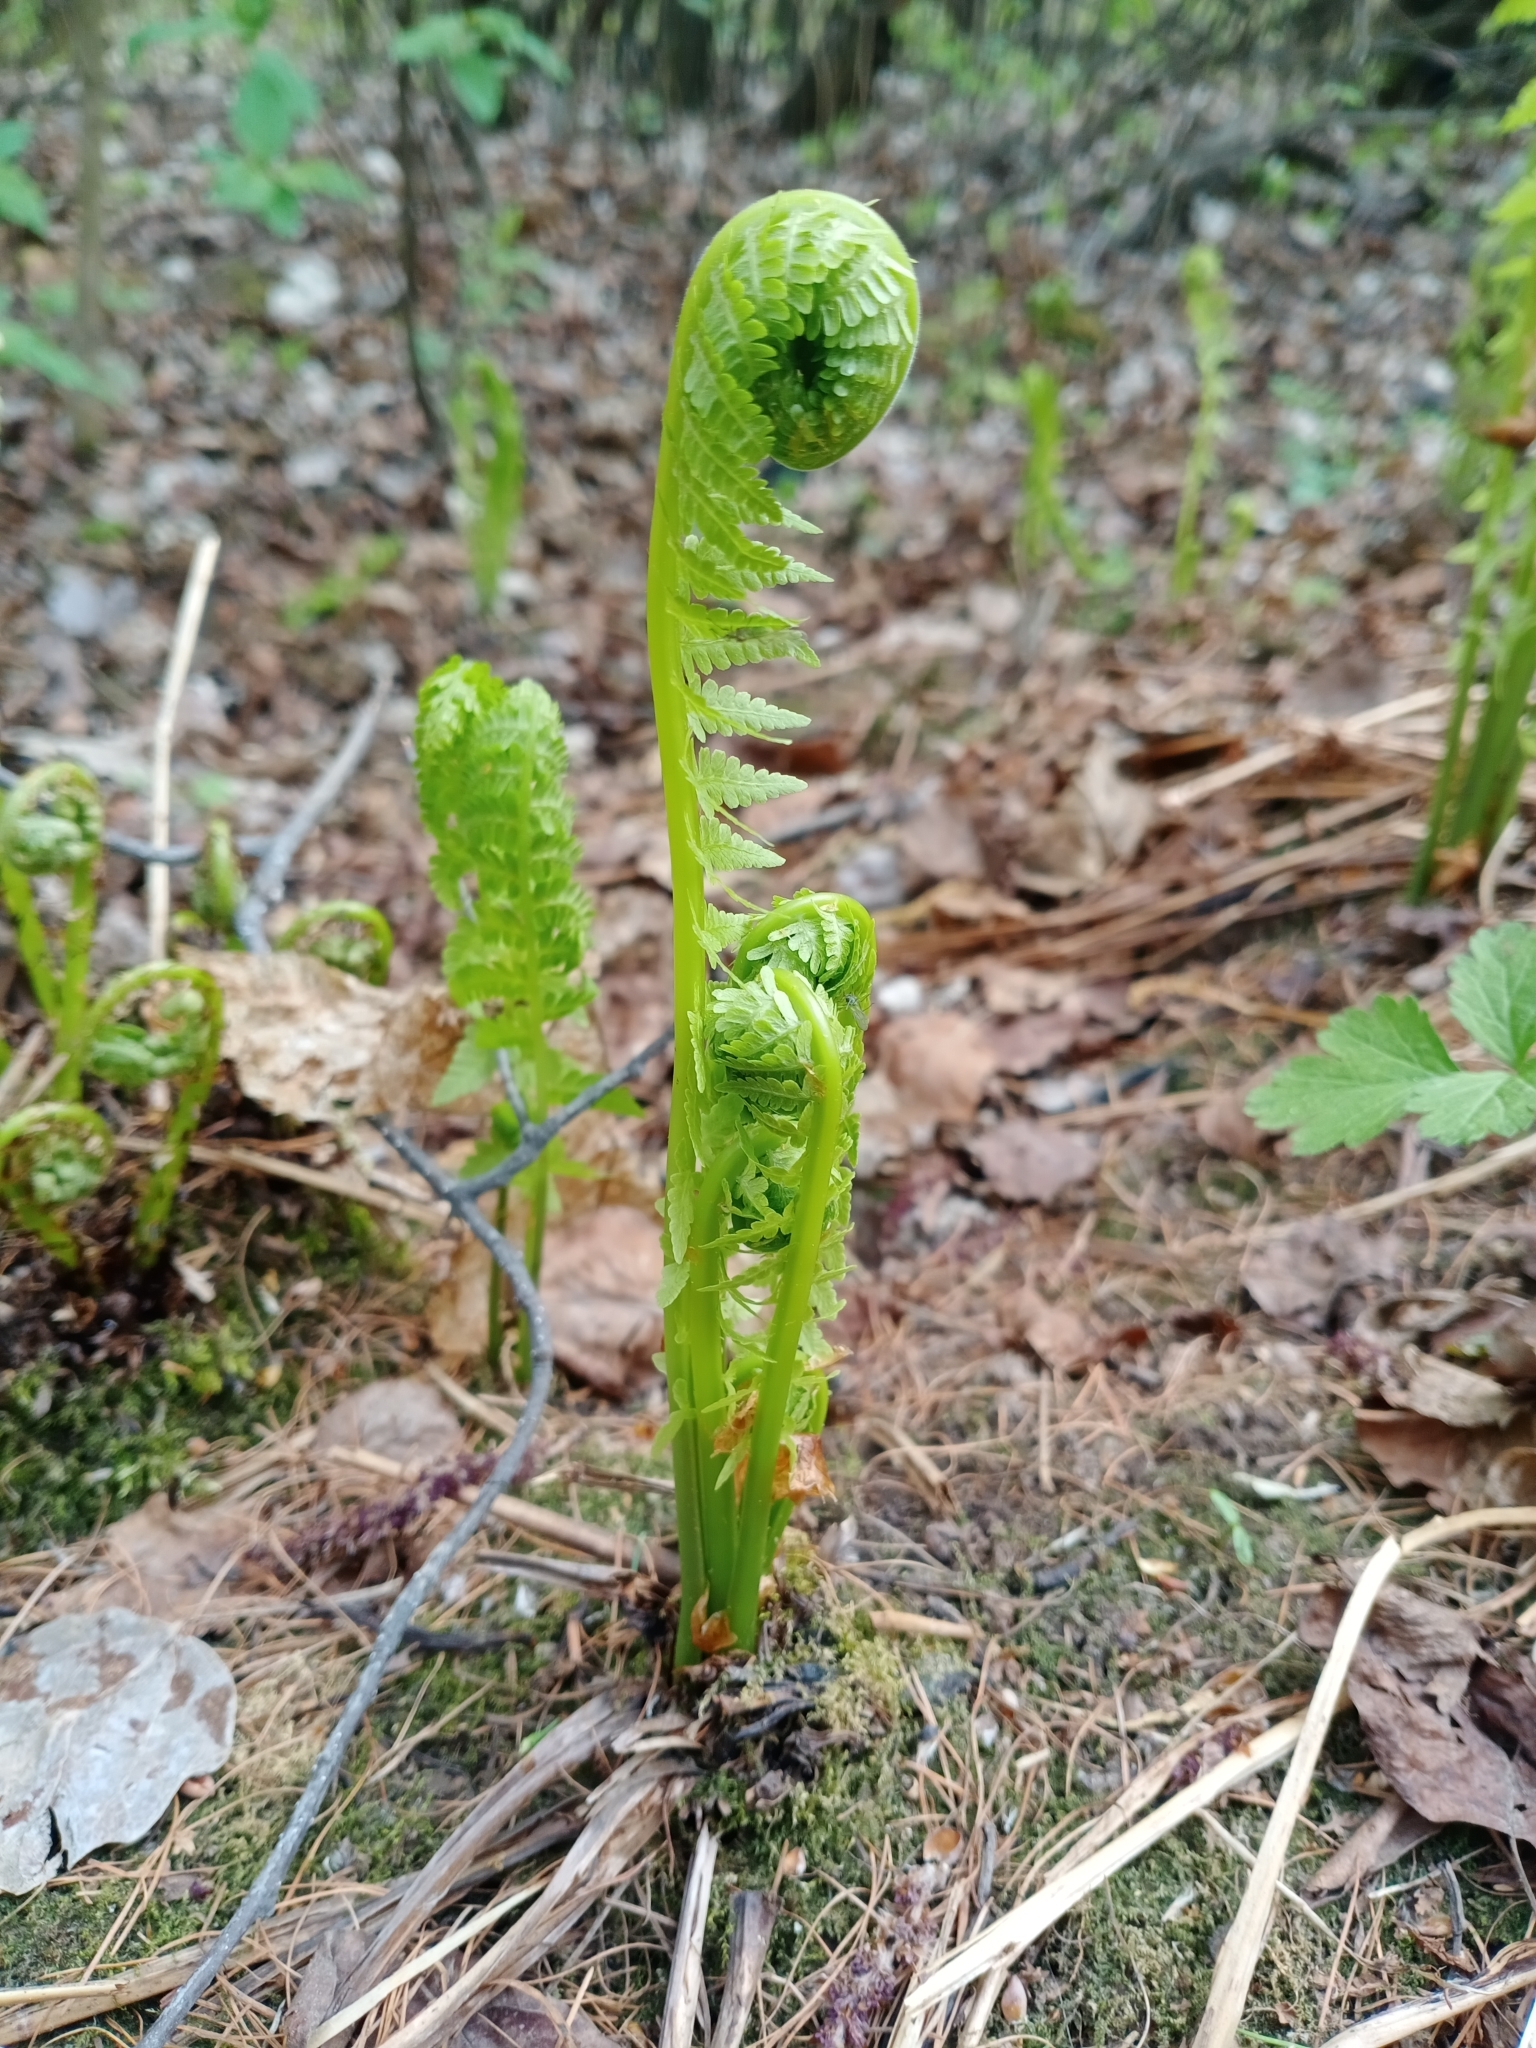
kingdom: Plantae
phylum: Tracheophyta
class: Polypodiopsida
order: Polypodiales
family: Onocleaceae
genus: Matteuccia
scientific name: Matteuccia struthiopteris
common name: Ostrich fern
